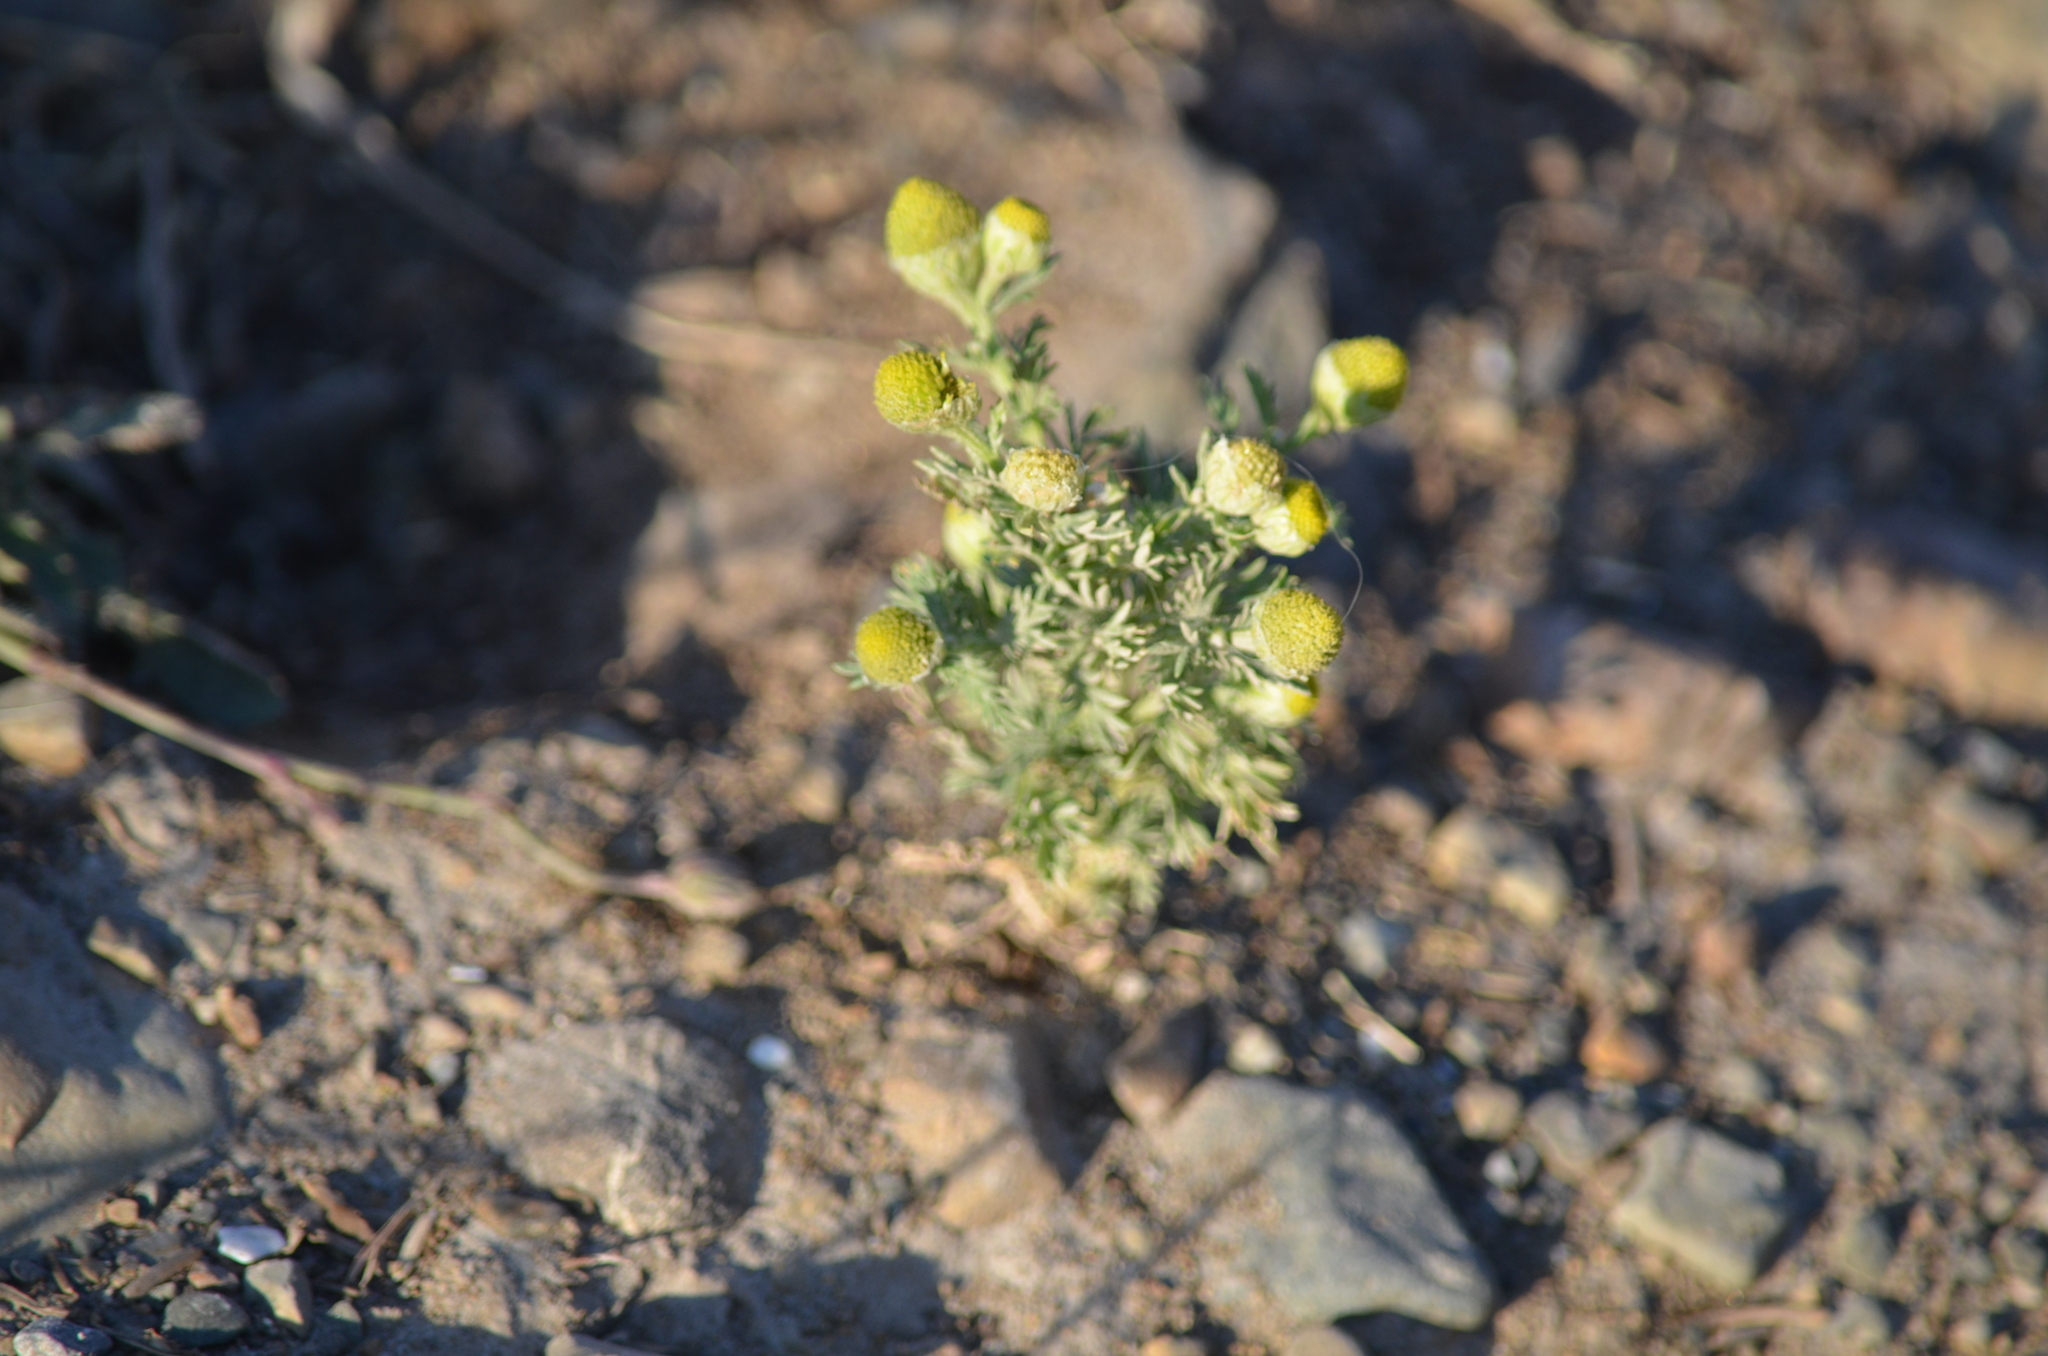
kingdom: Plantae
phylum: Tracheophyta
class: Magnoliopsida
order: Asterales
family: Asteraceae
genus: Matricaria
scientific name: Matricaria discoidea
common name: Disc mayweed
